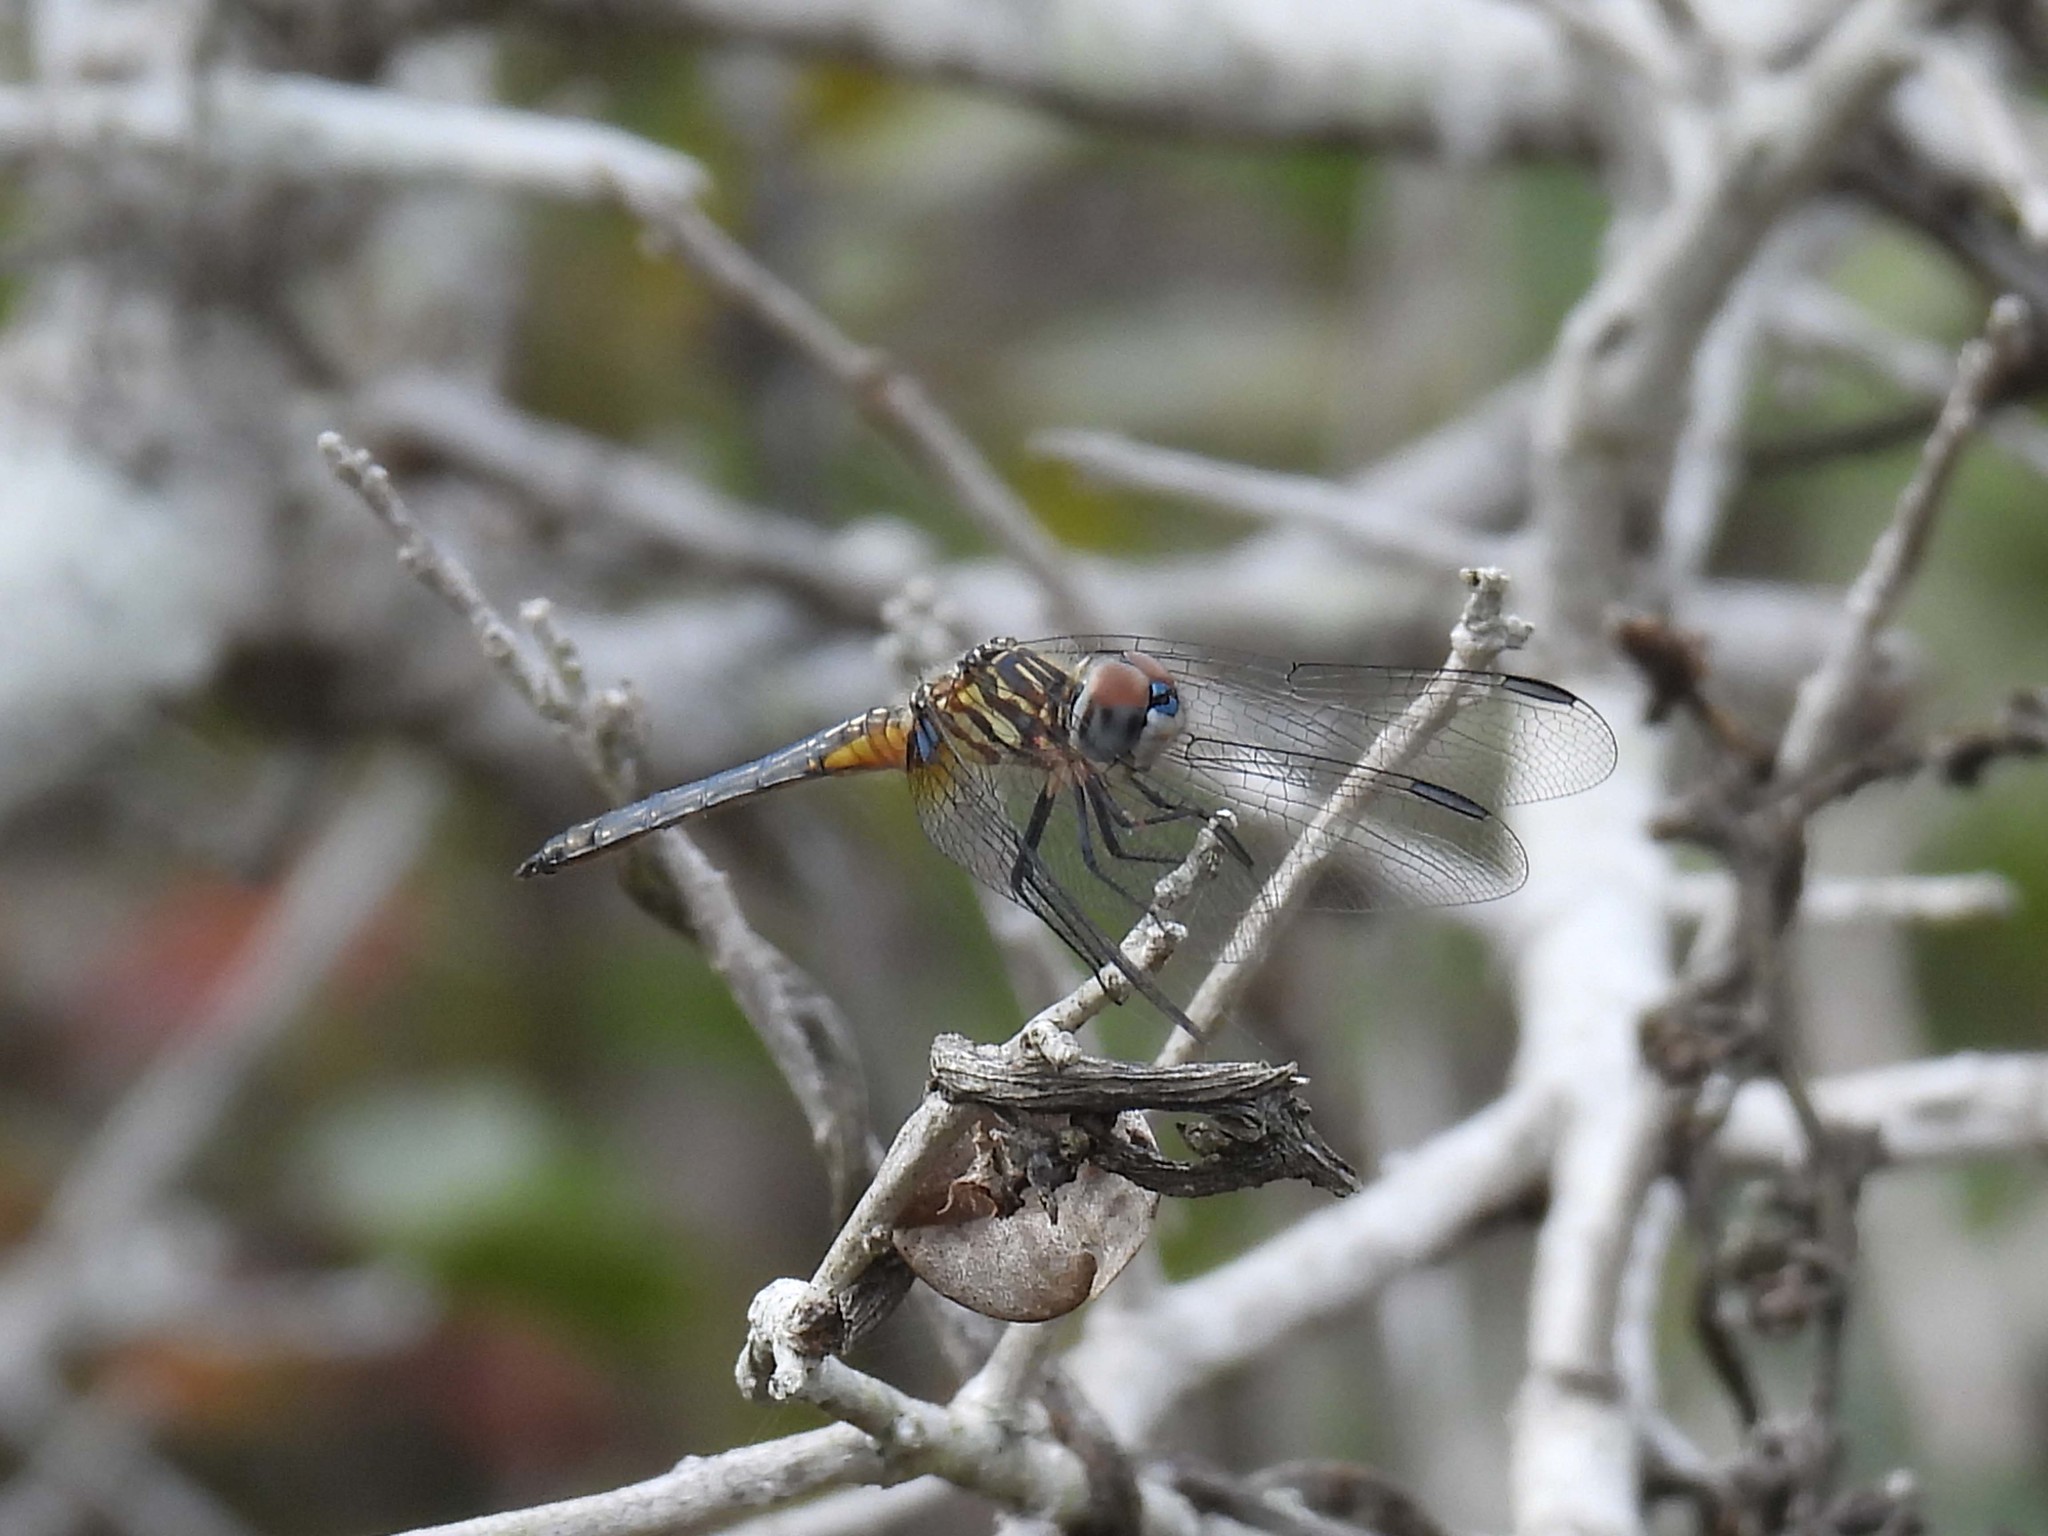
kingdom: Animalia
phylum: Arthropoda
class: Insecta
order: Odonata
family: Libellulidae
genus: Pachydiplax
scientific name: Pachydiplax longipennis
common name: Blue dasher
